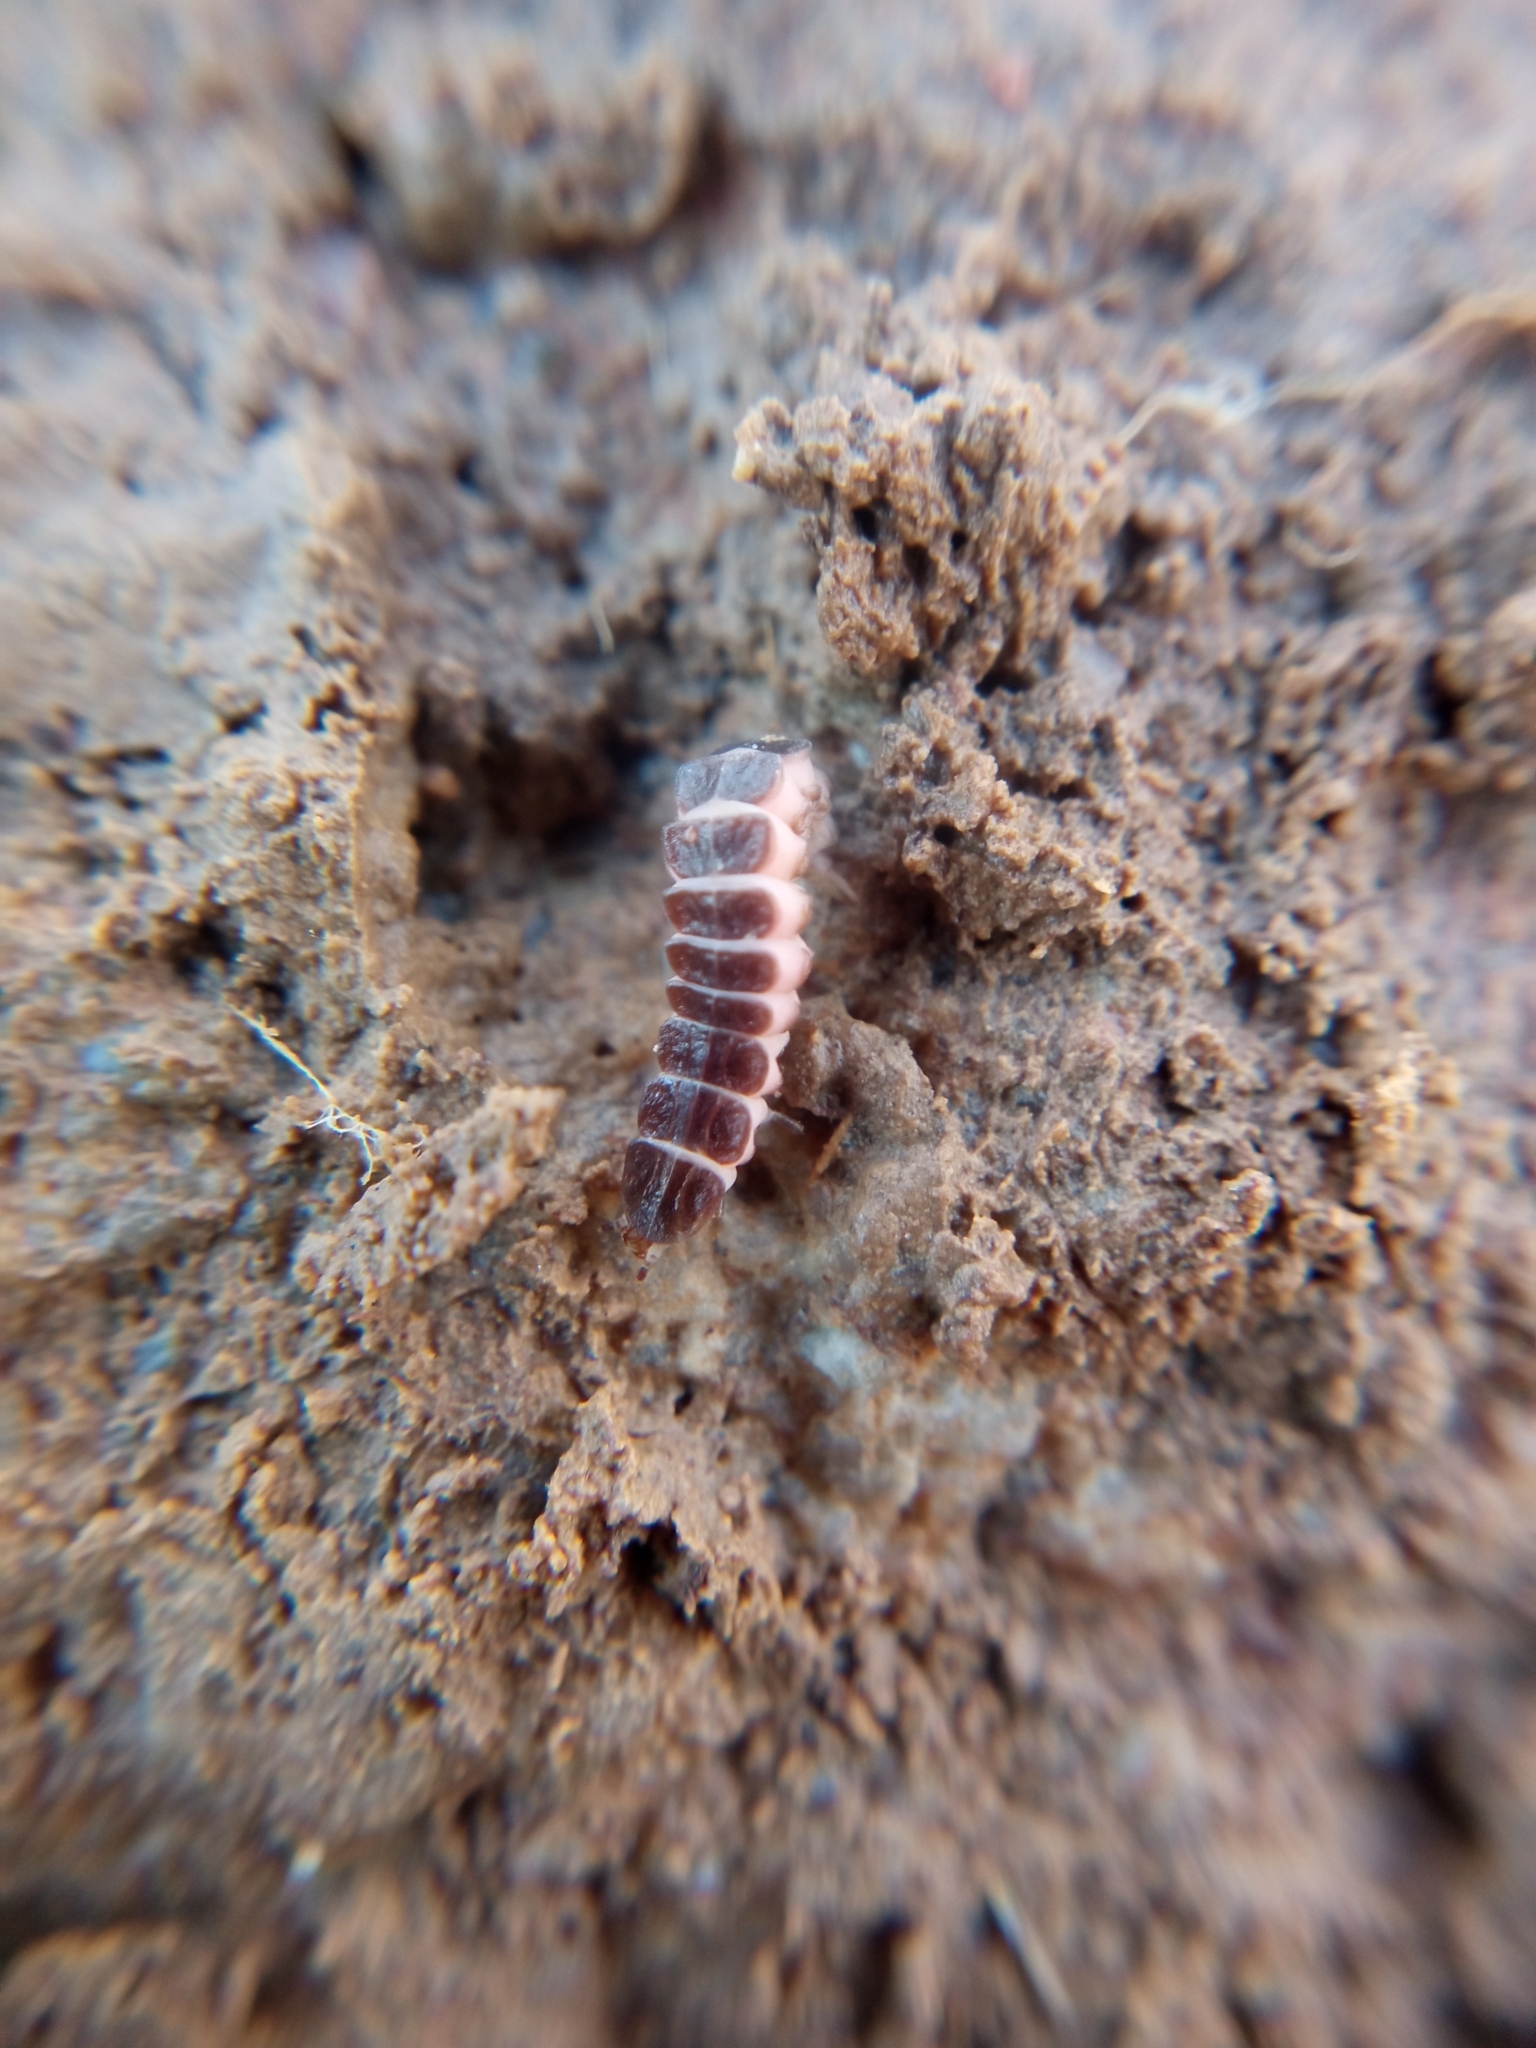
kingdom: Animalia
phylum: Arthropoda
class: Insecta
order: Coleoptera
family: Lampyridae
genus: Phosphaenus
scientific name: Phosphaenus hemipterus
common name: Short-winged firefly
